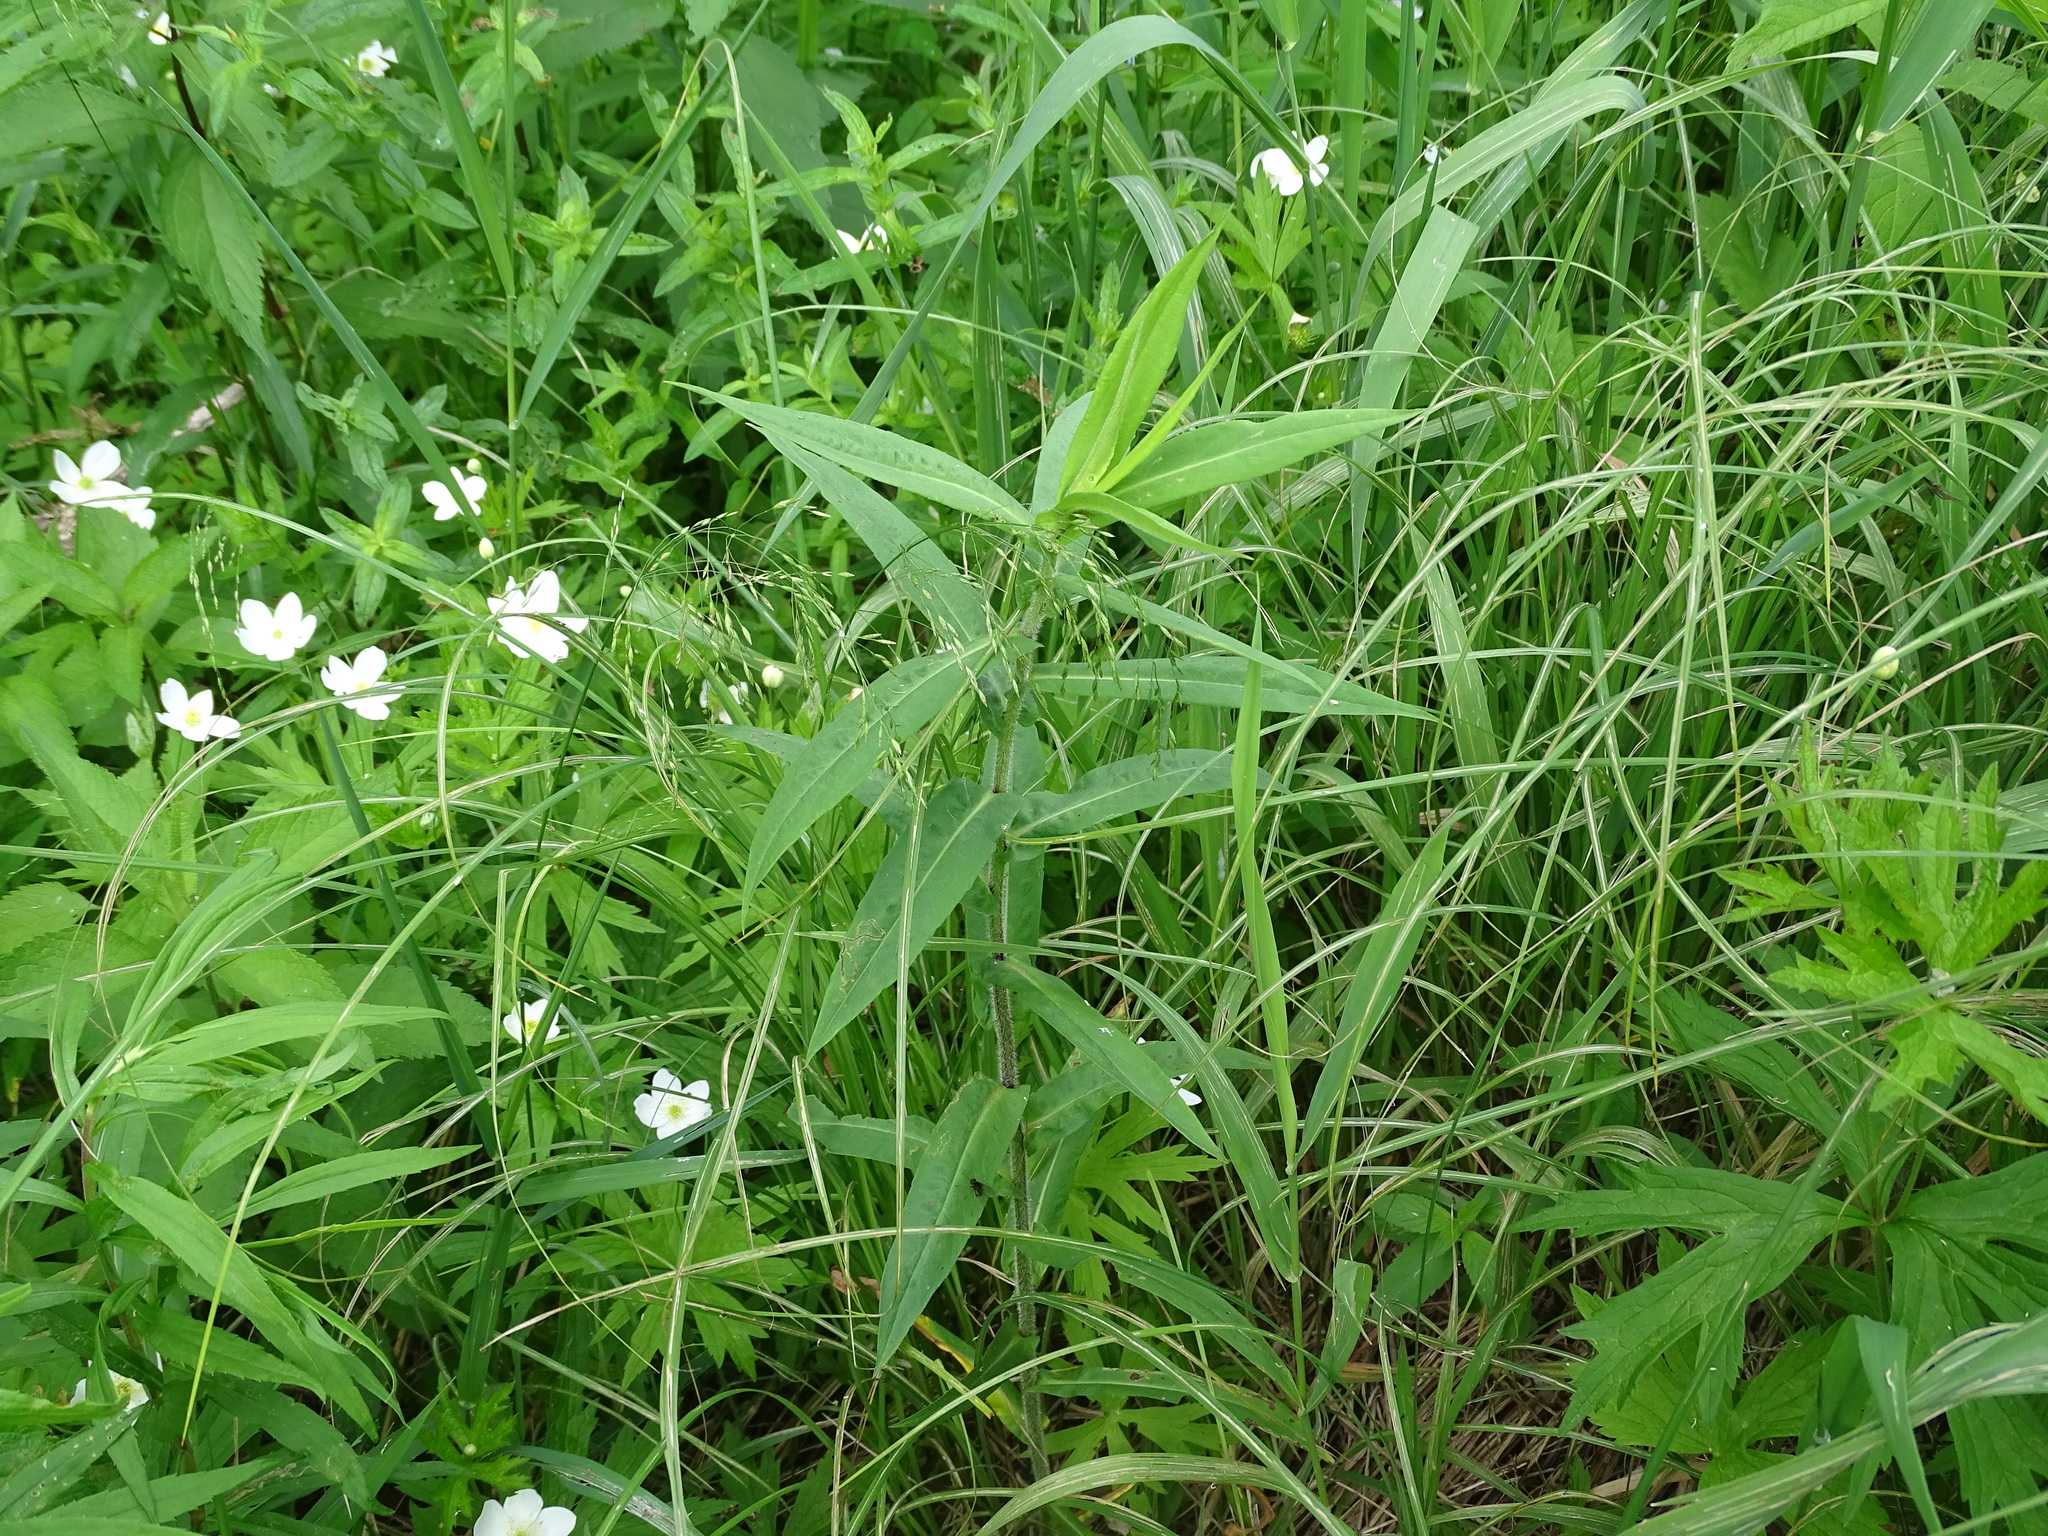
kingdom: Plantae
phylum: Tracheophyta
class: Magnoliopsida
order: Asterales
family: Asteraceae
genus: Symphyotrichum
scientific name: Symphyotrichum puniceum
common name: Bog aster
